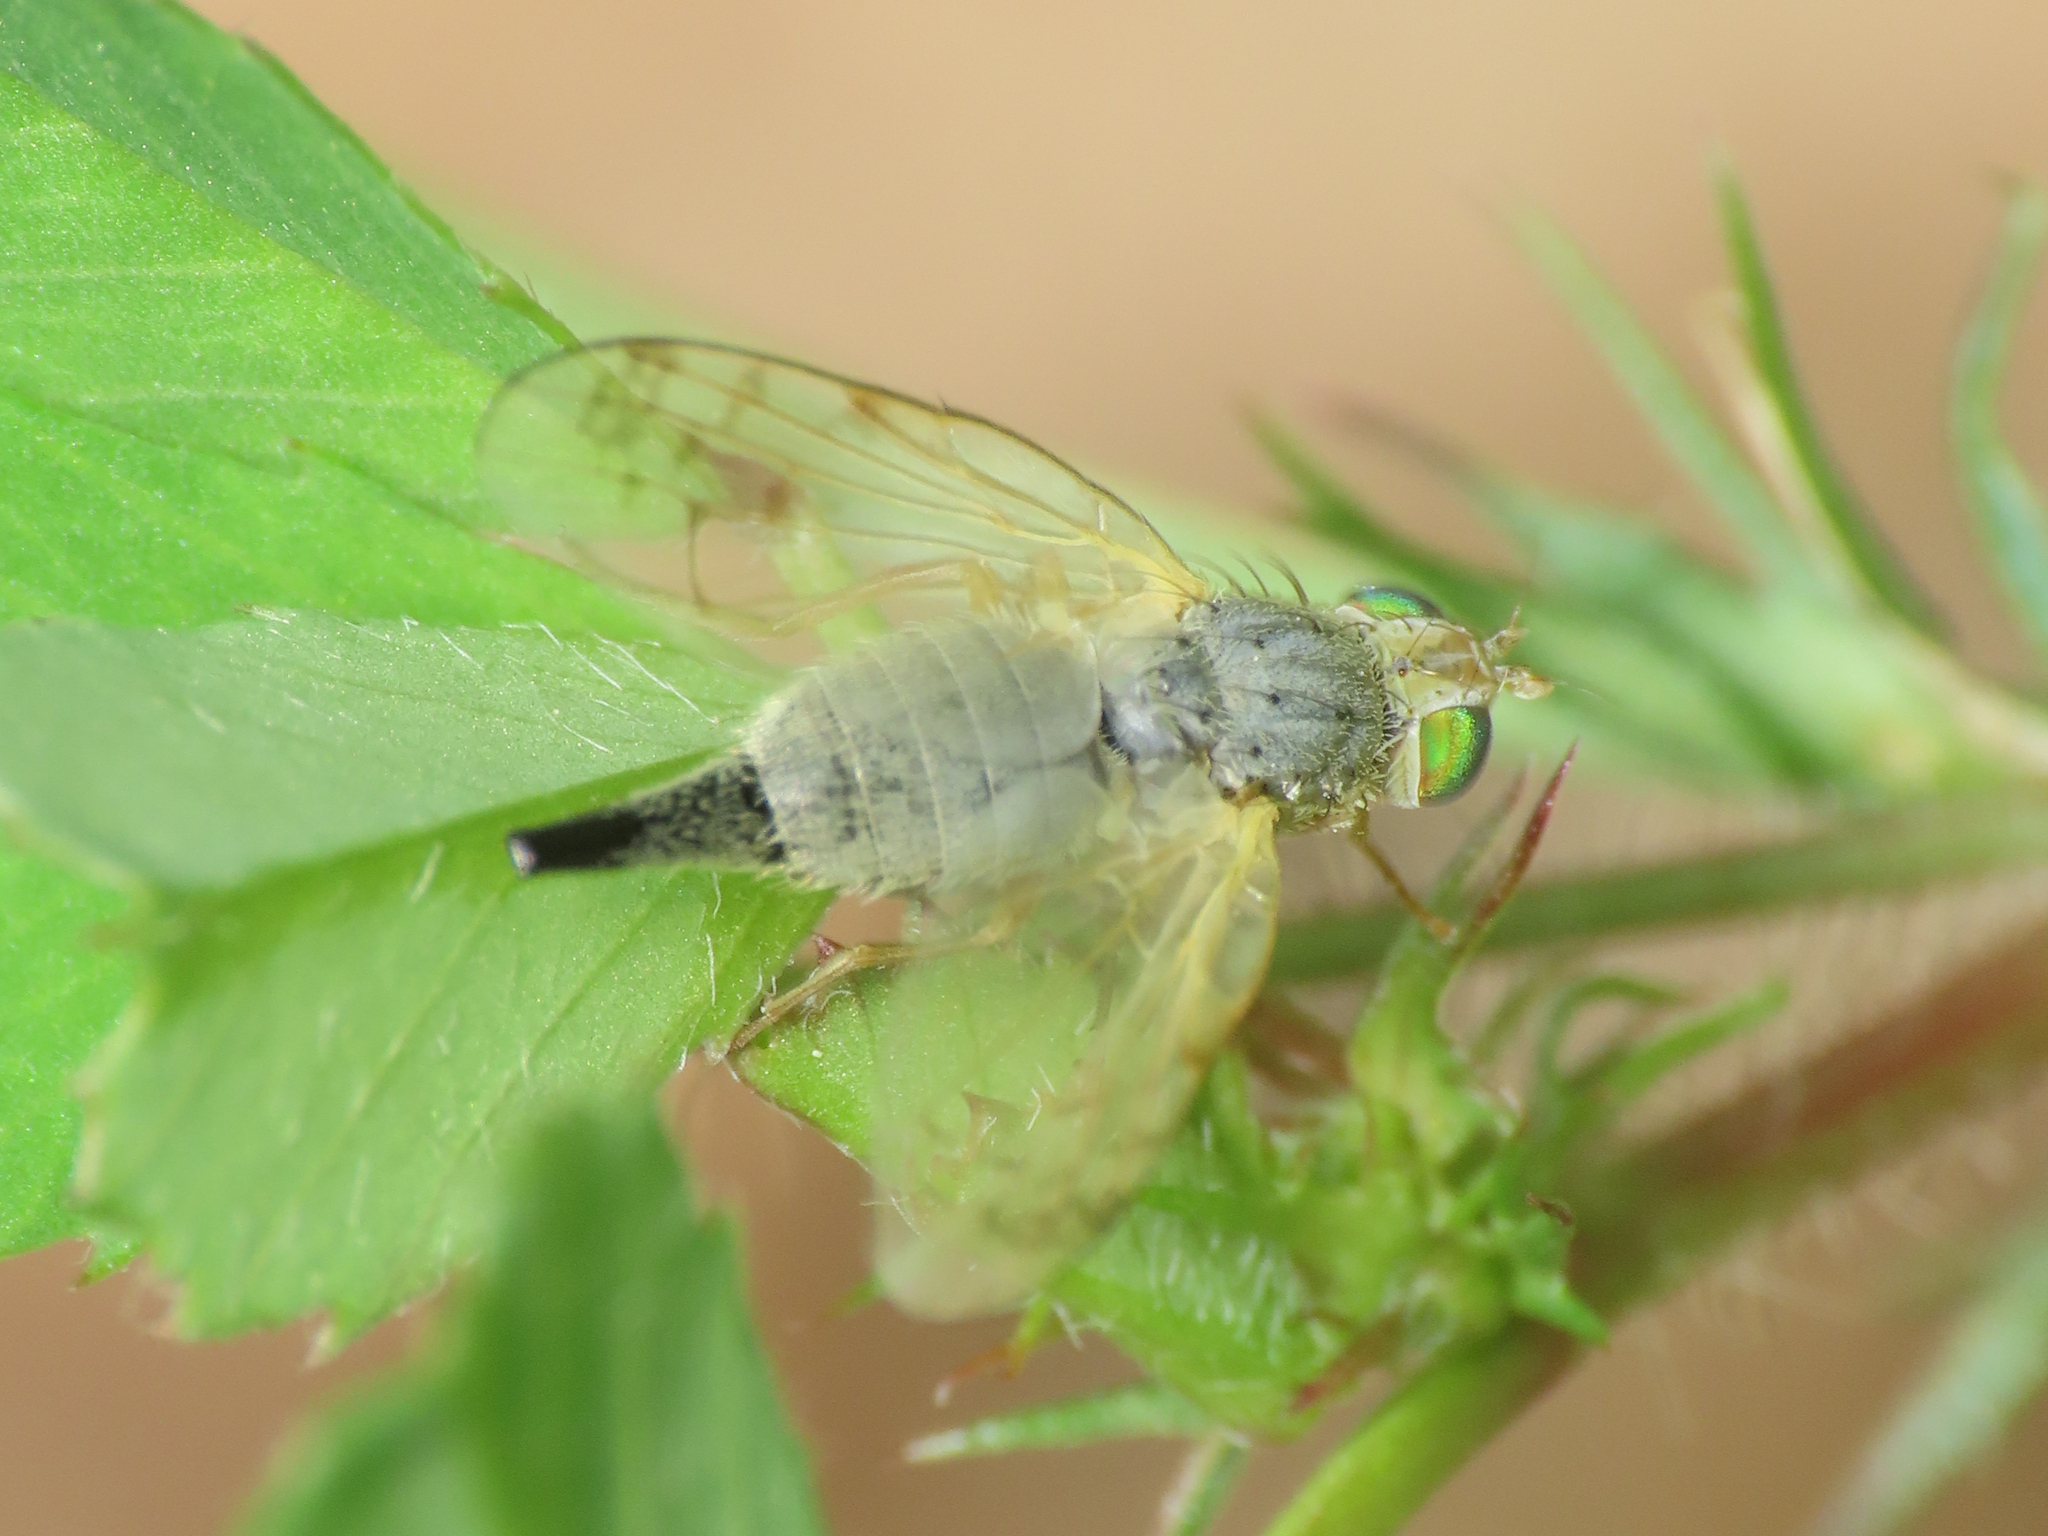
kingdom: Animalia
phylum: Arthropoda
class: Insecta
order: Diptera
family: Tephritidae
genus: Acanthiophilus
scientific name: Acanthiophilus helianthi
